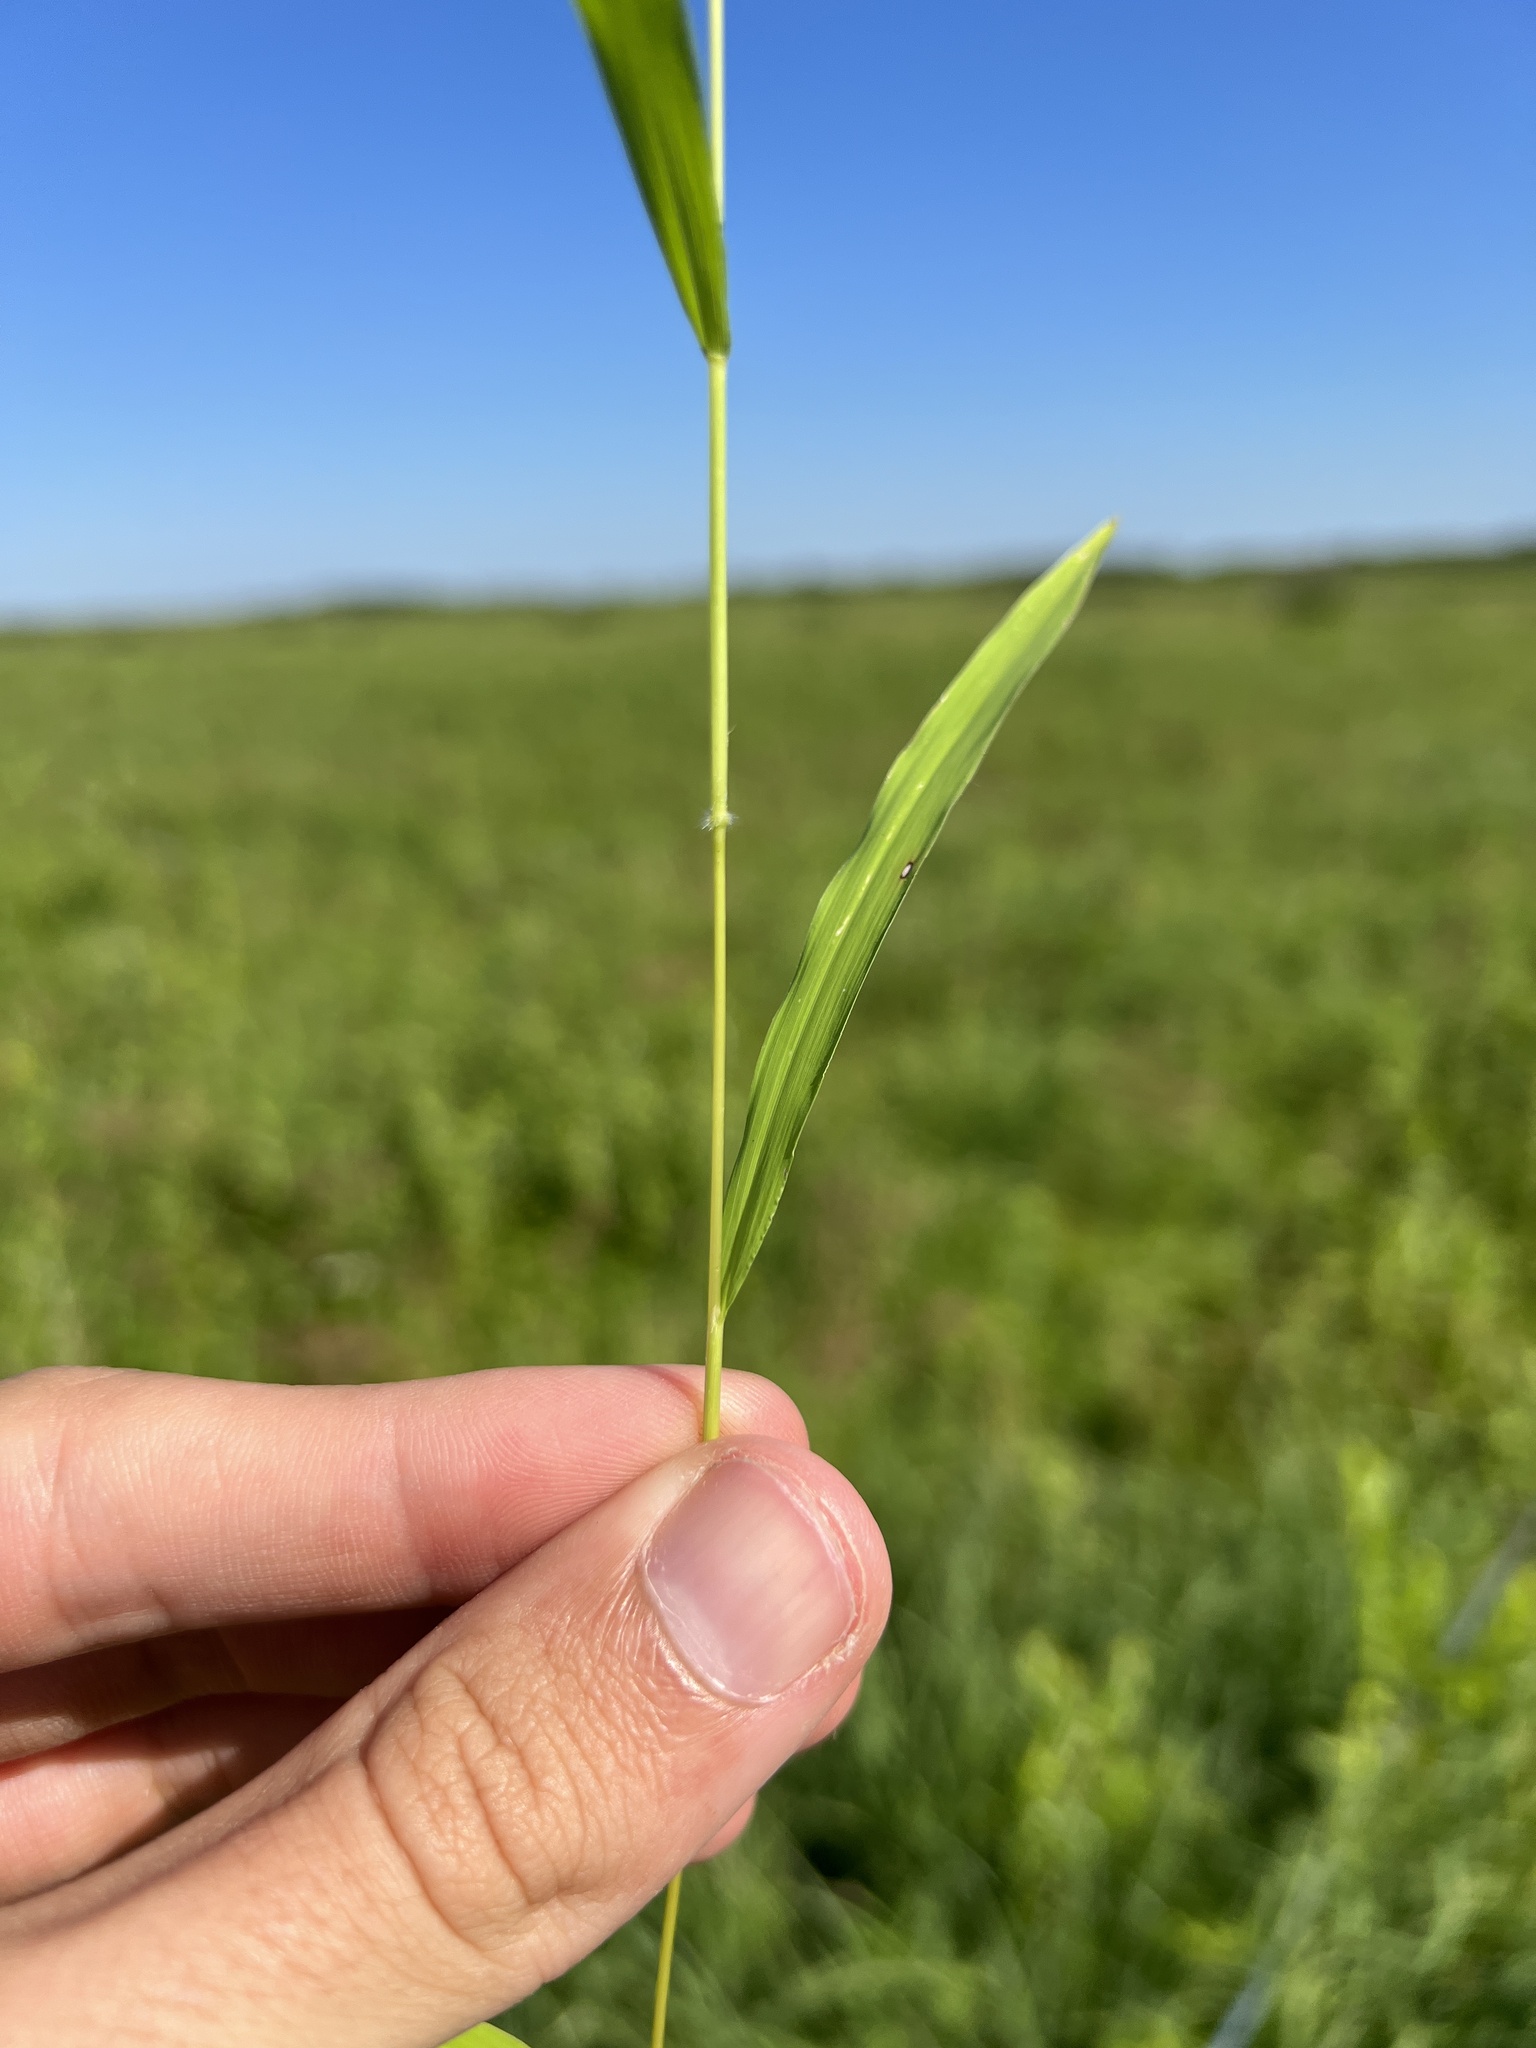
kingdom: Plantae
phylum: Tracheophyta
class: Liliopsida
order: Poales
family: Poaceae
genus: Leersia
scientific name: Leersia virginica
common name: White cutgrass
